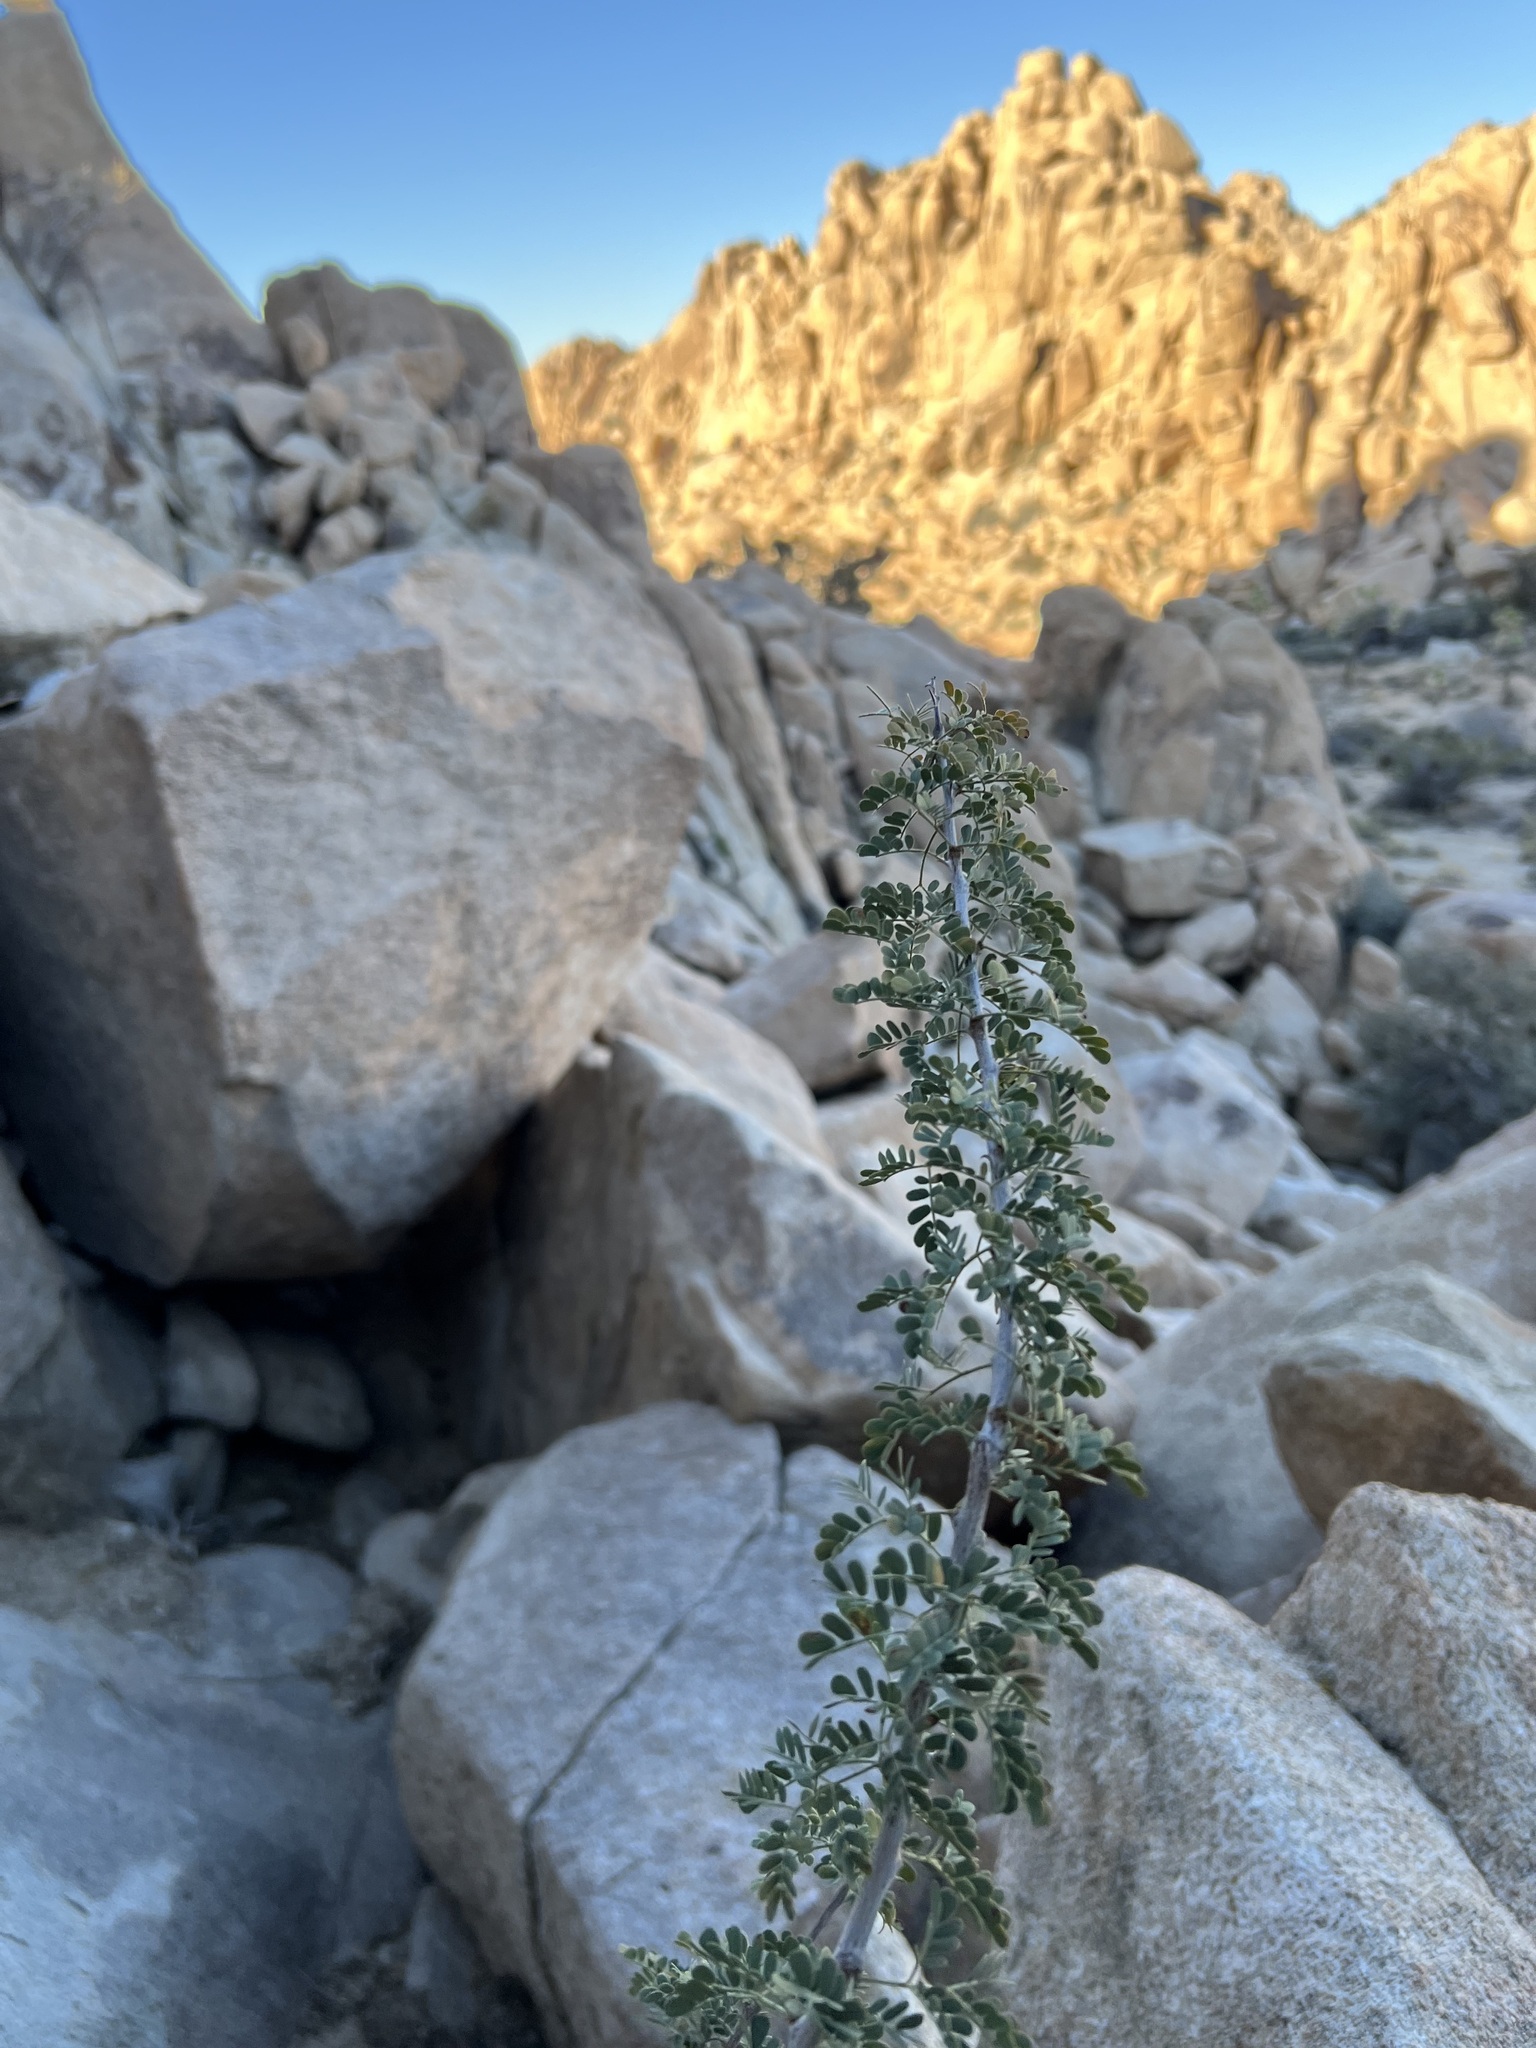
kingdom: Plantae
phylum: Tracheophyta
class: Magnoliopsida
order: Fabales
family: Fabaceae
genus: Senegalia
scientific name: Senegalia greggii
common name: Texas-mimosa
